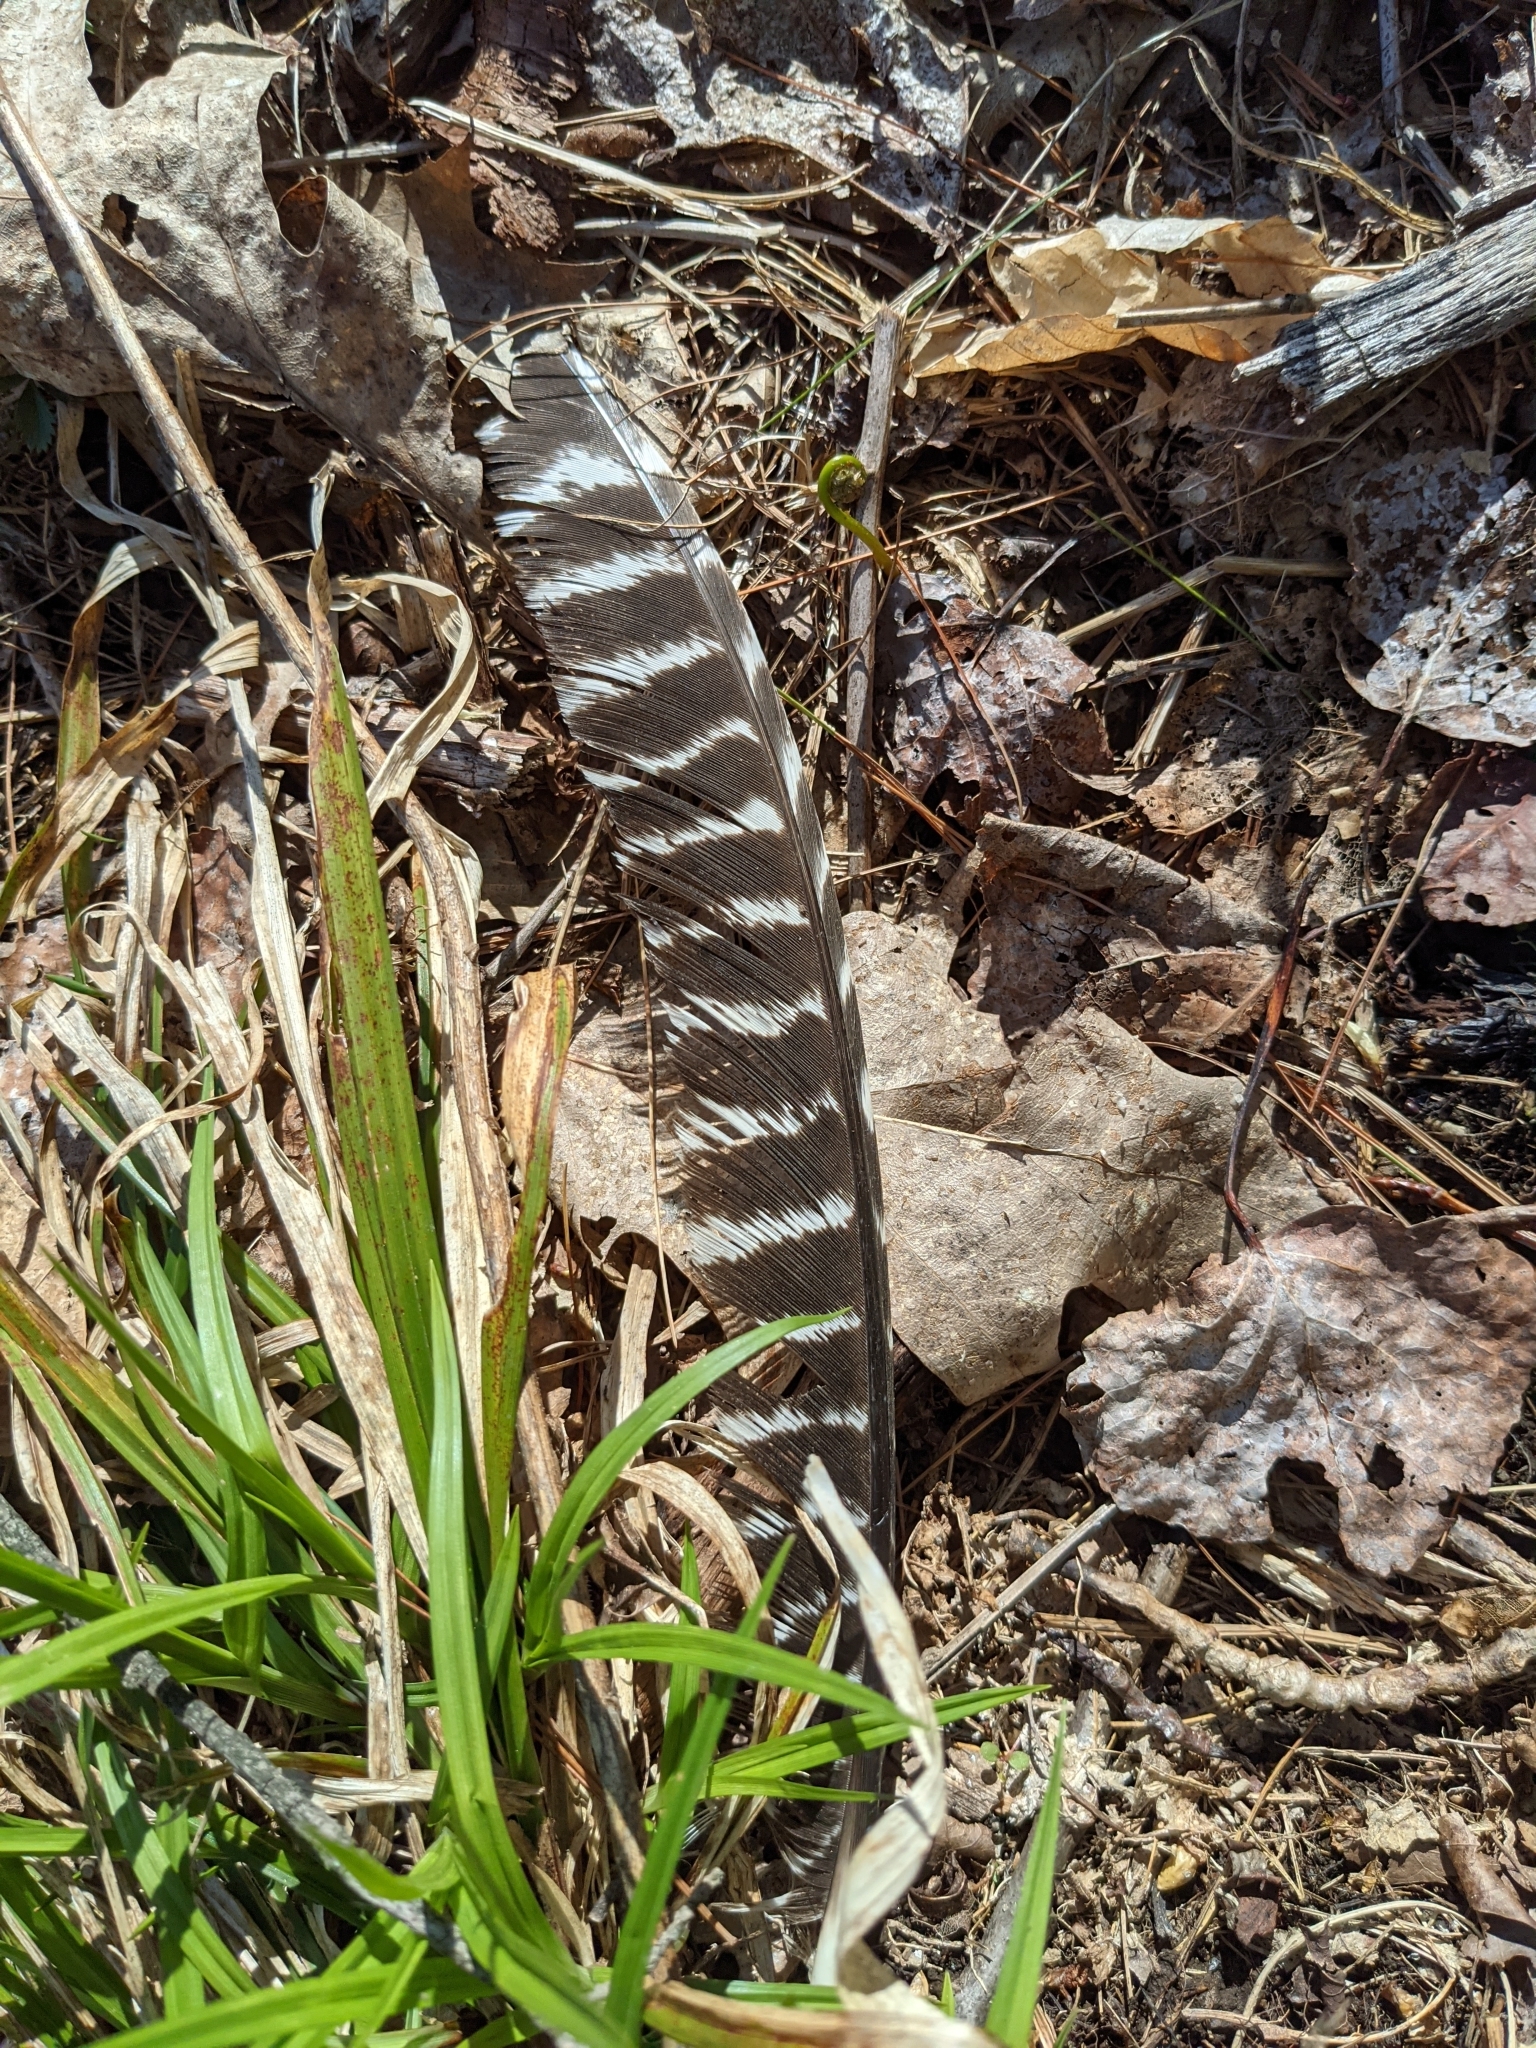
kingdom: Animalia
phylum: Chordata
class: Aves
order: Galliformes
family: Phasianidae
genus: Meleagris
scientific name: Meleagris gallopavo
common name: Wild turkey
